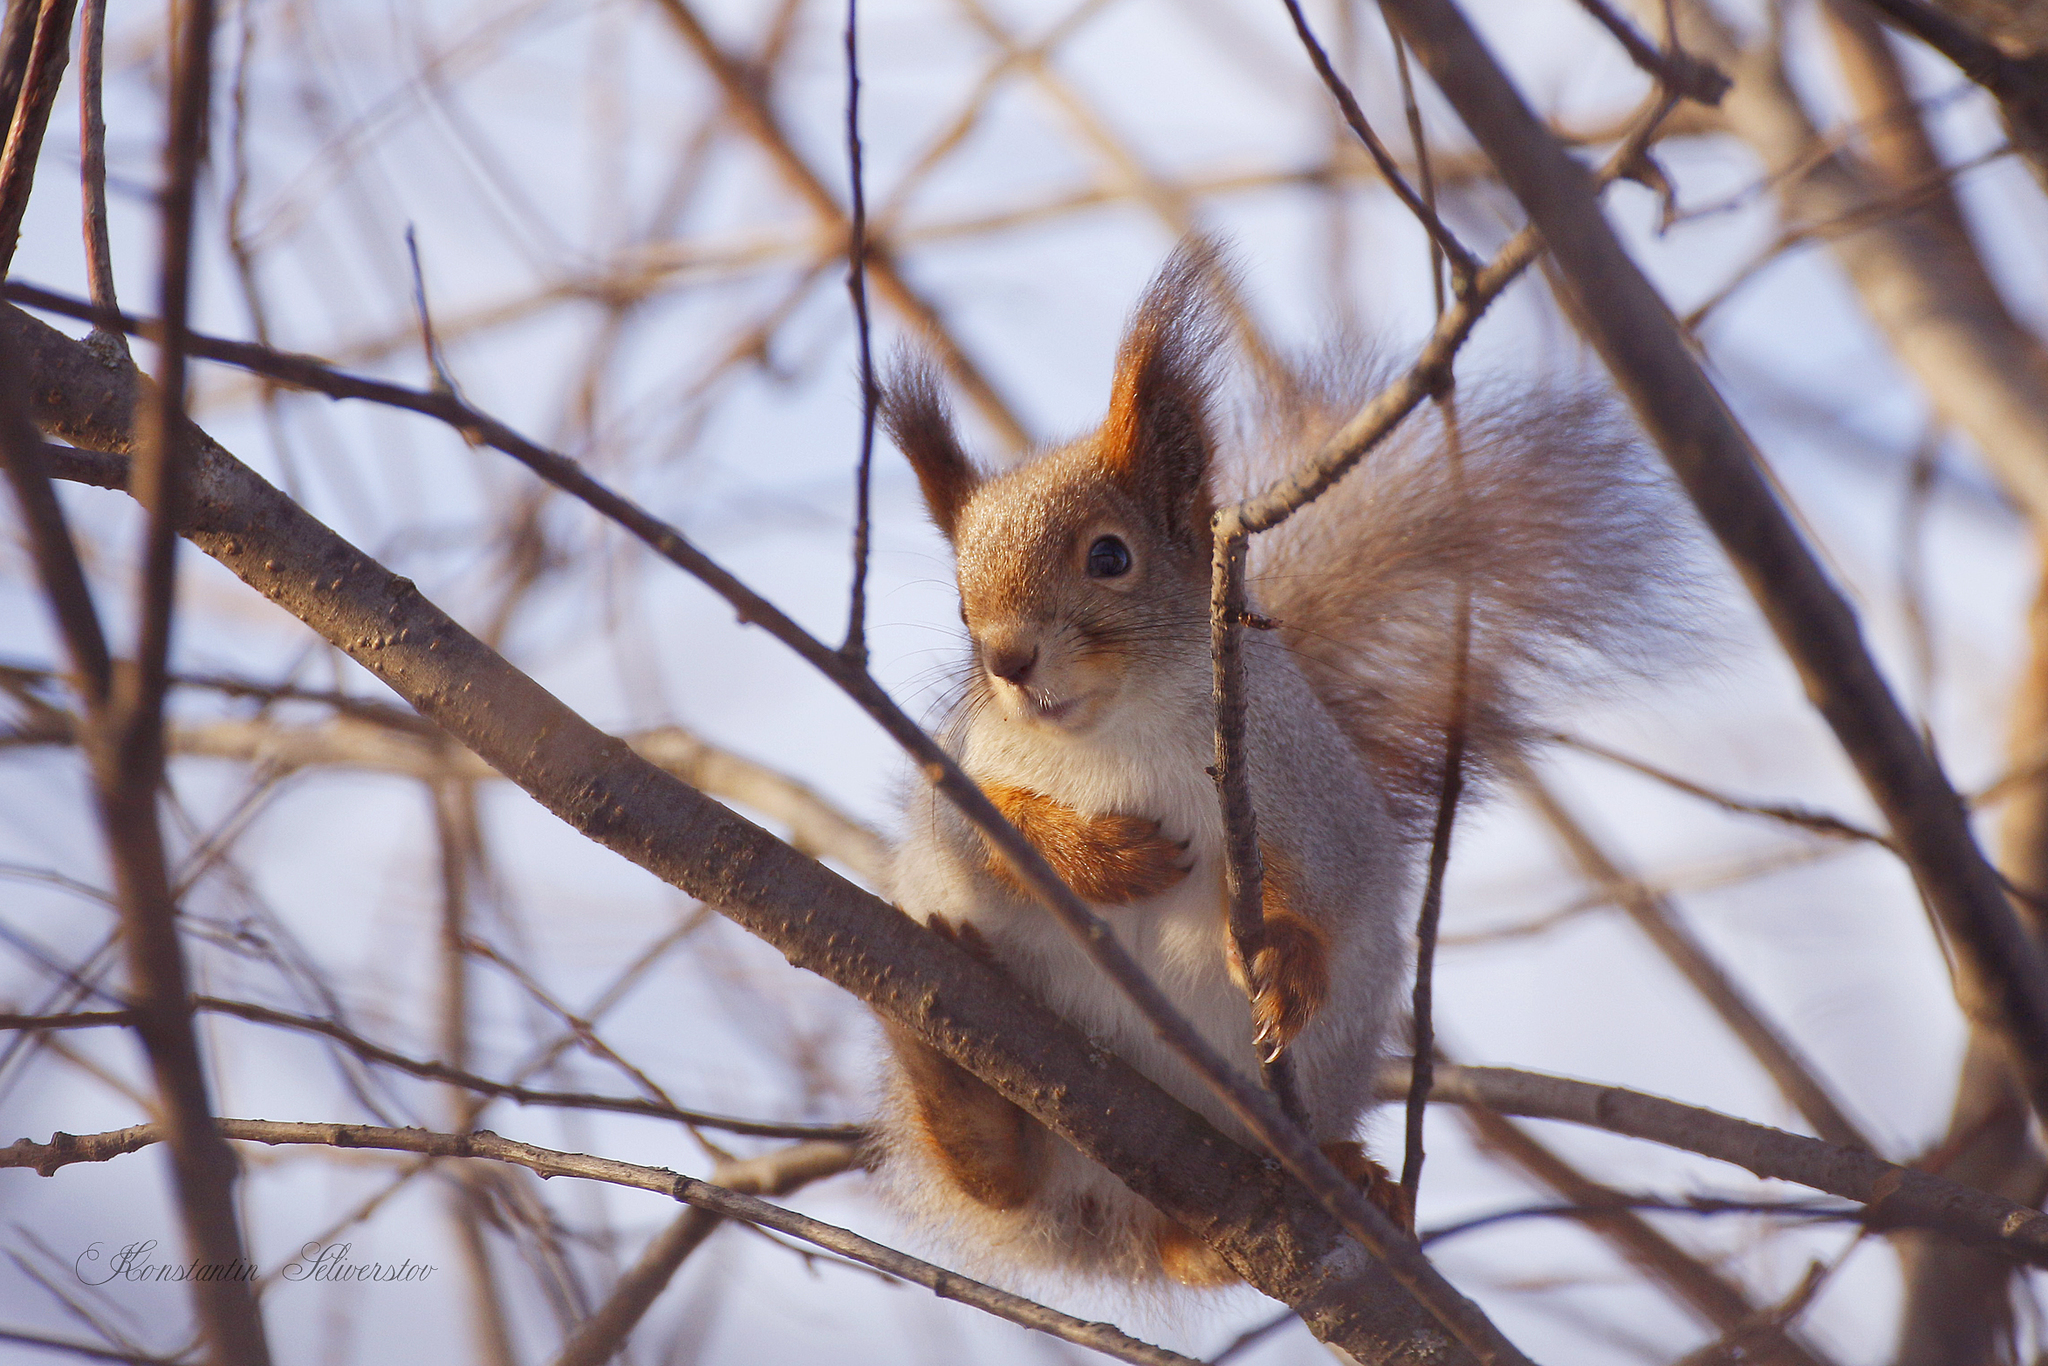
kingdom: Animalia
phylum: Chordata
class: Mammalia
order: Rodentia
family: Sciuridae
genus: Sciurus
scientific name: Sciurus vulgaris
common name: Eurasian red squirrel
